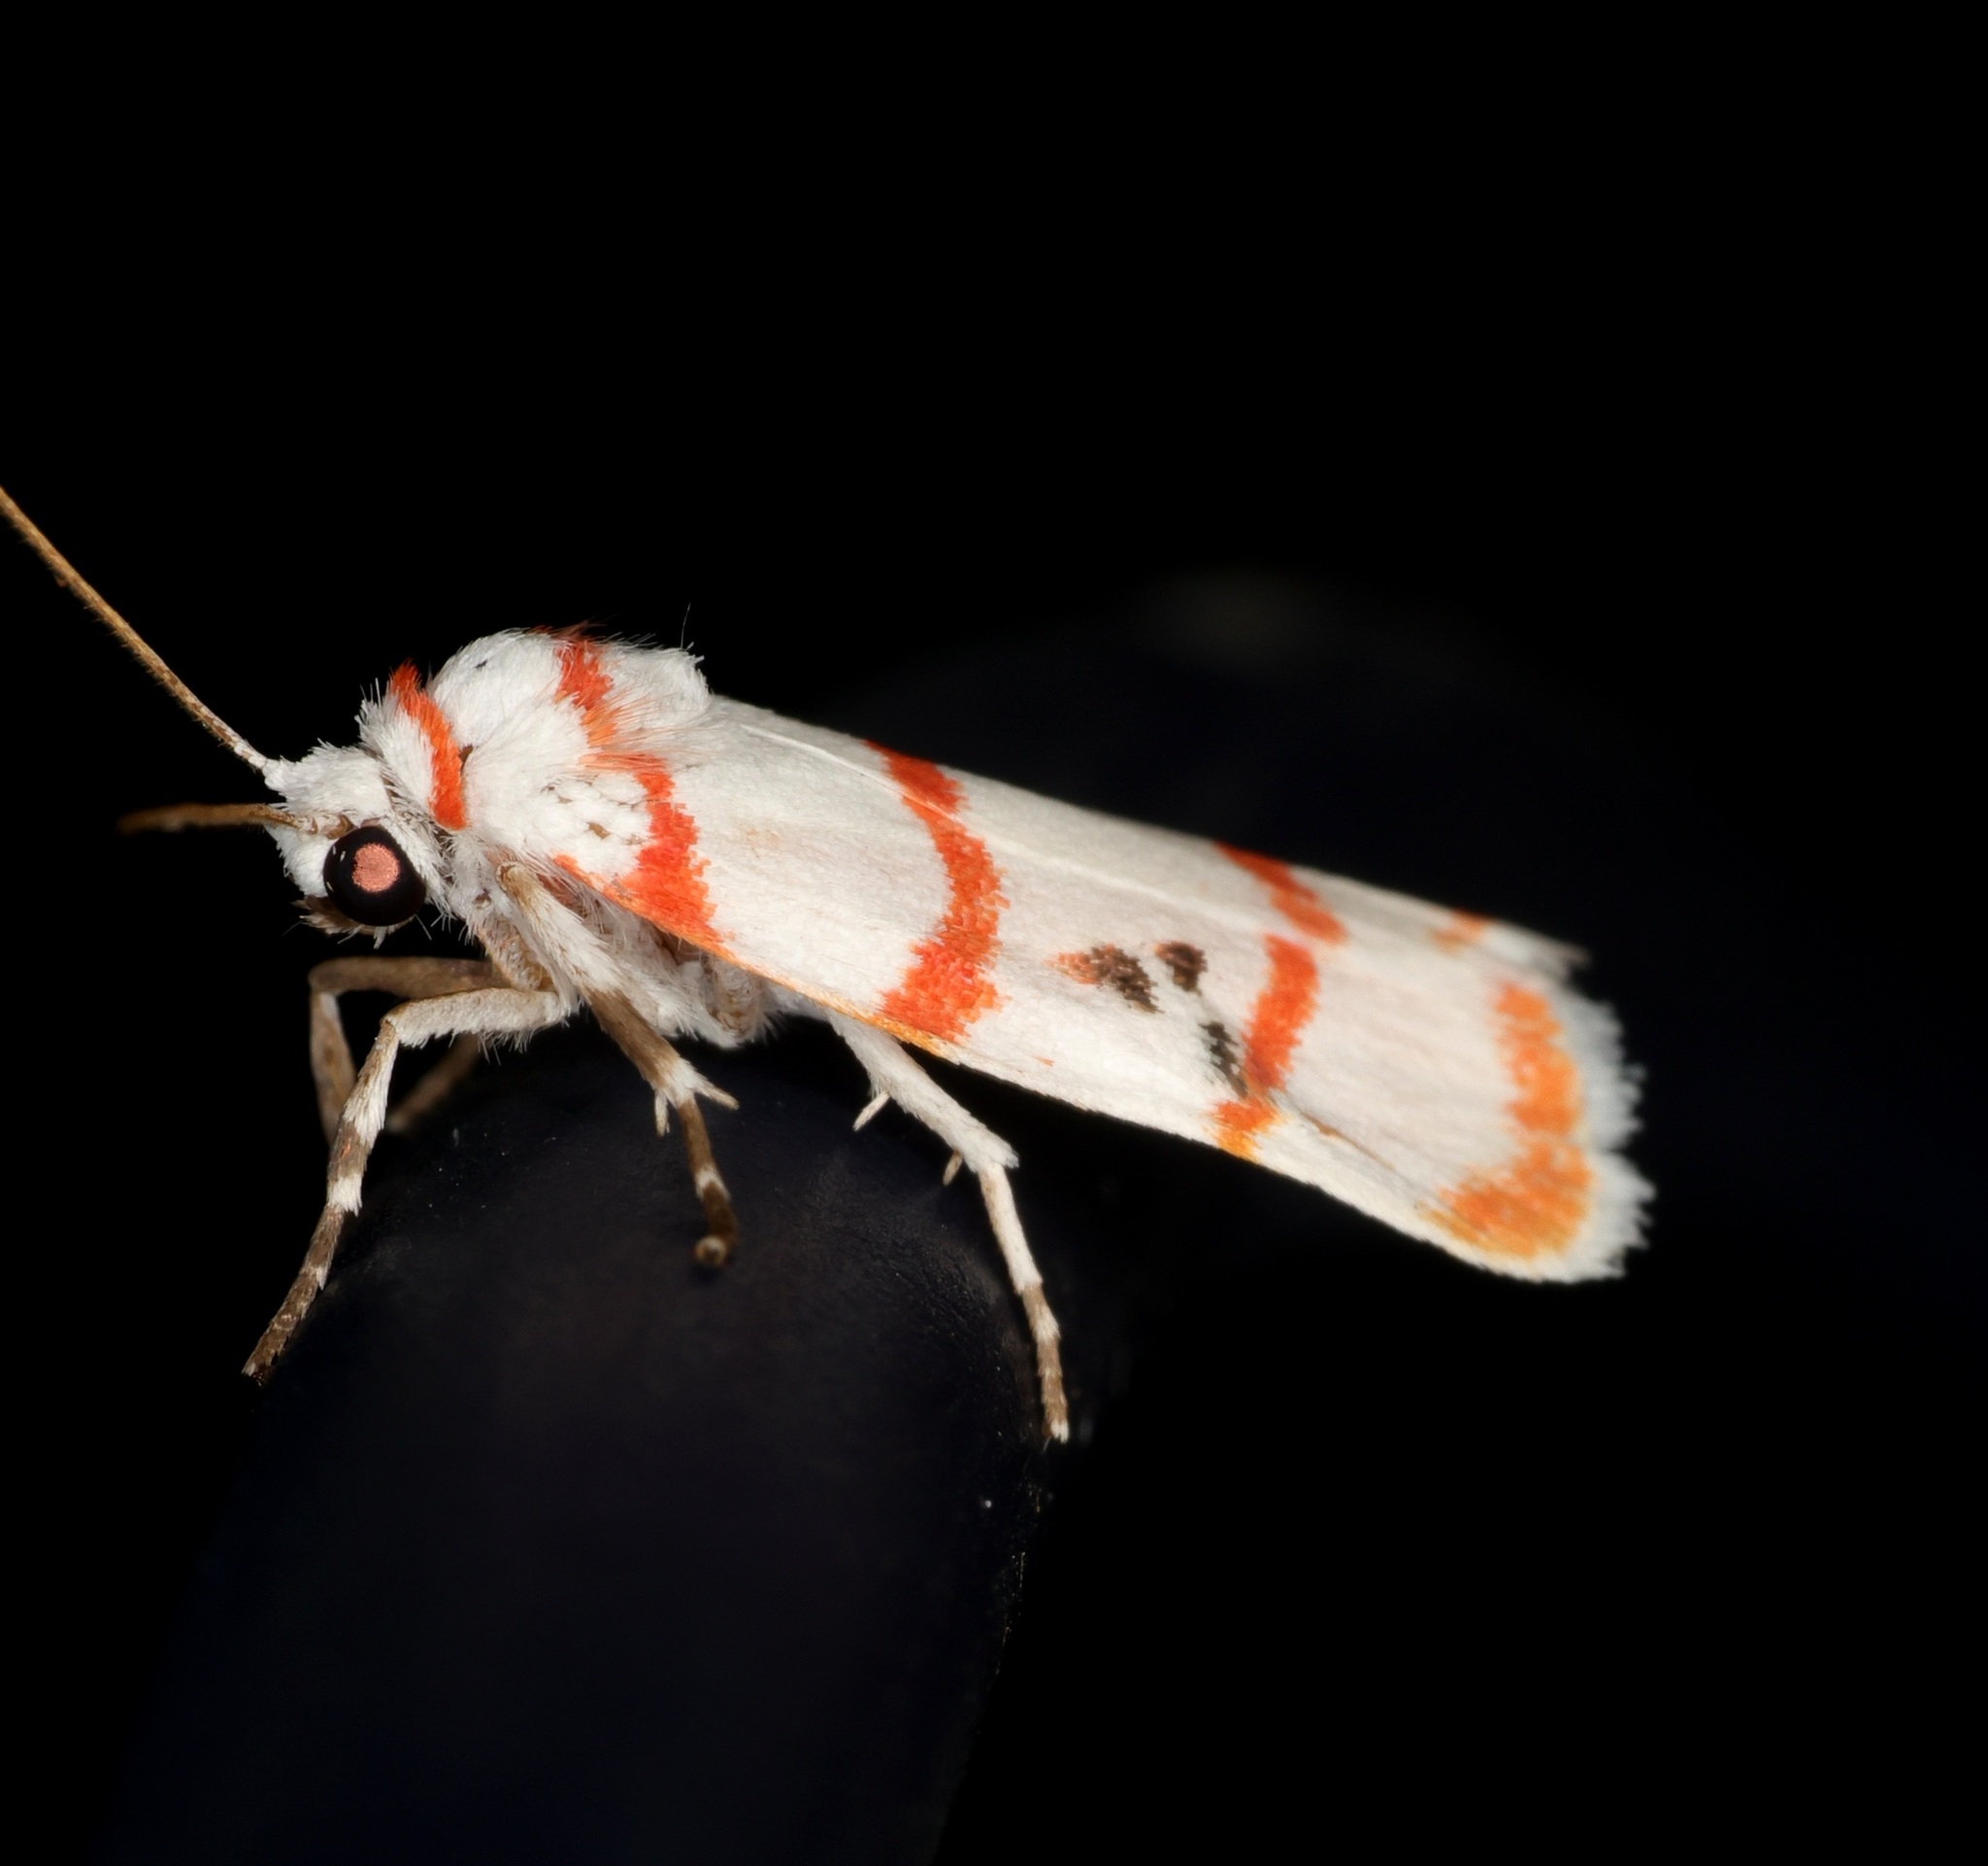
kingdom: Animalia
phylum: Arthropoda
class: Insecta
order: Lepidoptera
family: Erebidae
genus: Cyana
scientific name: Cyana gelida
